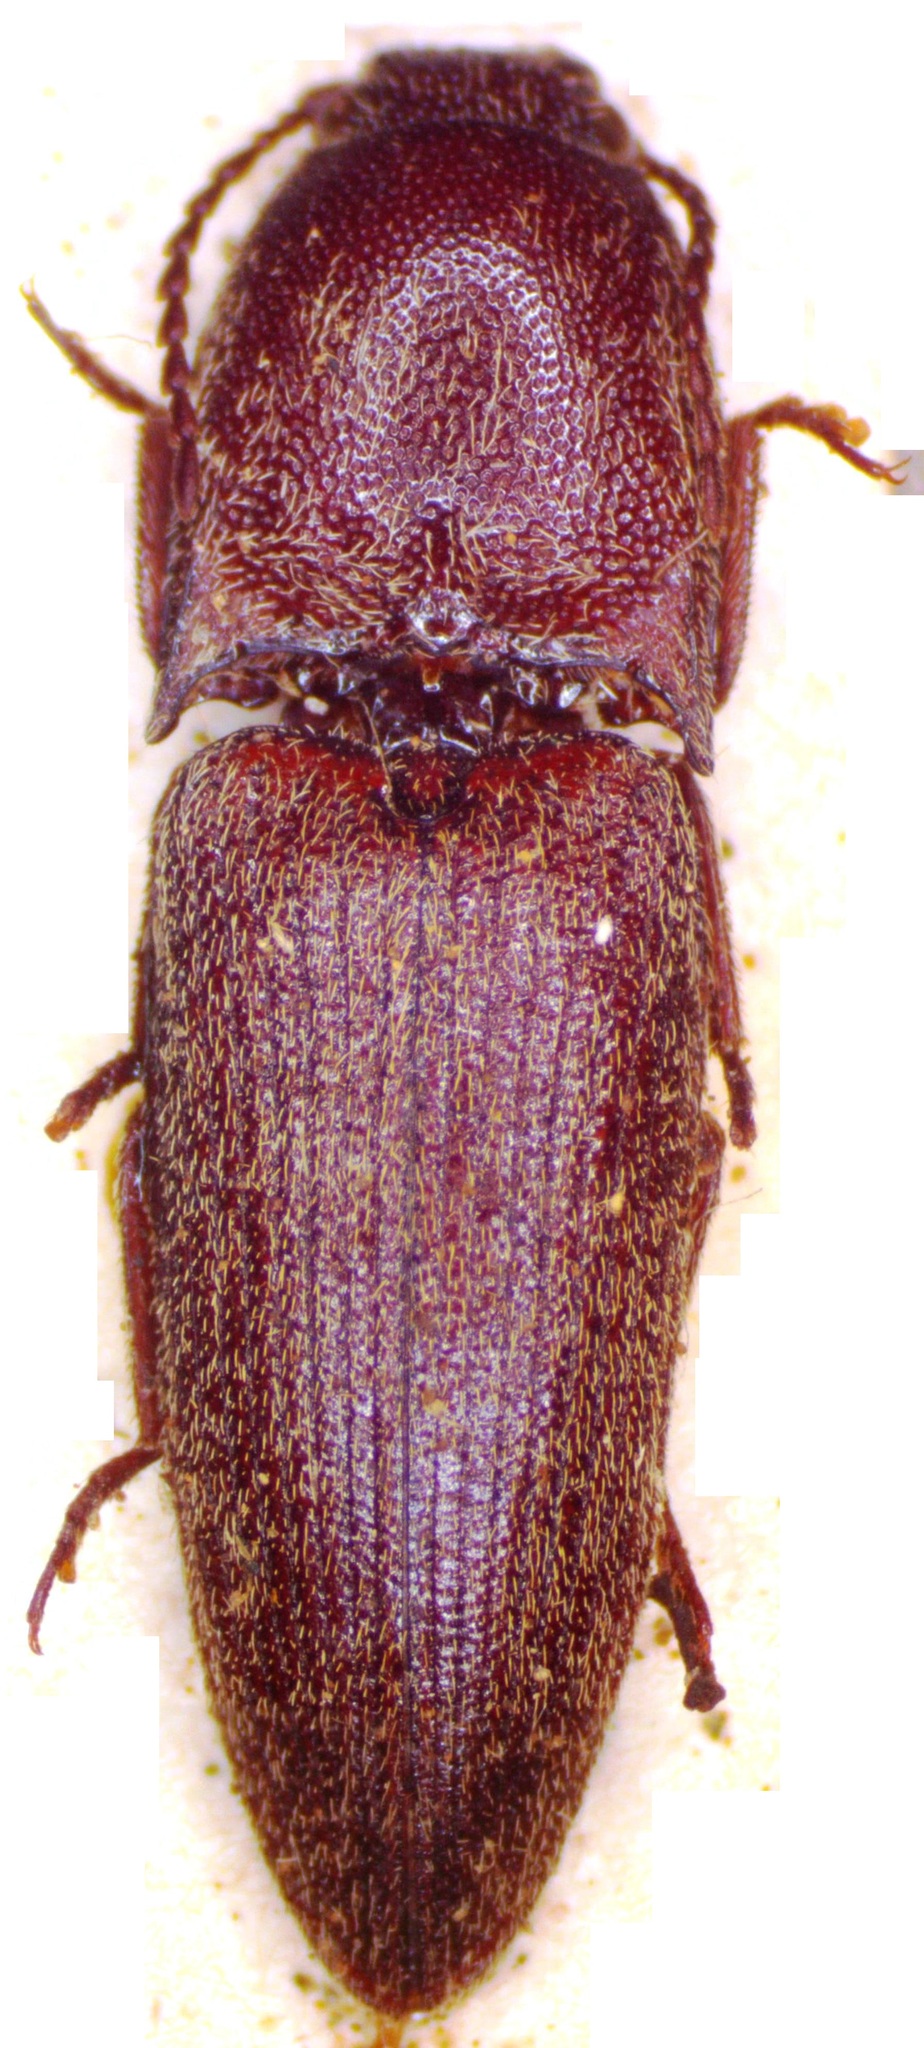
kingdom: Animalia
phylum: Arthropoda
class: Insecta
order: Coleoptera
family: Elateridae
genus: Propsephus
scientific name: Propsephus
